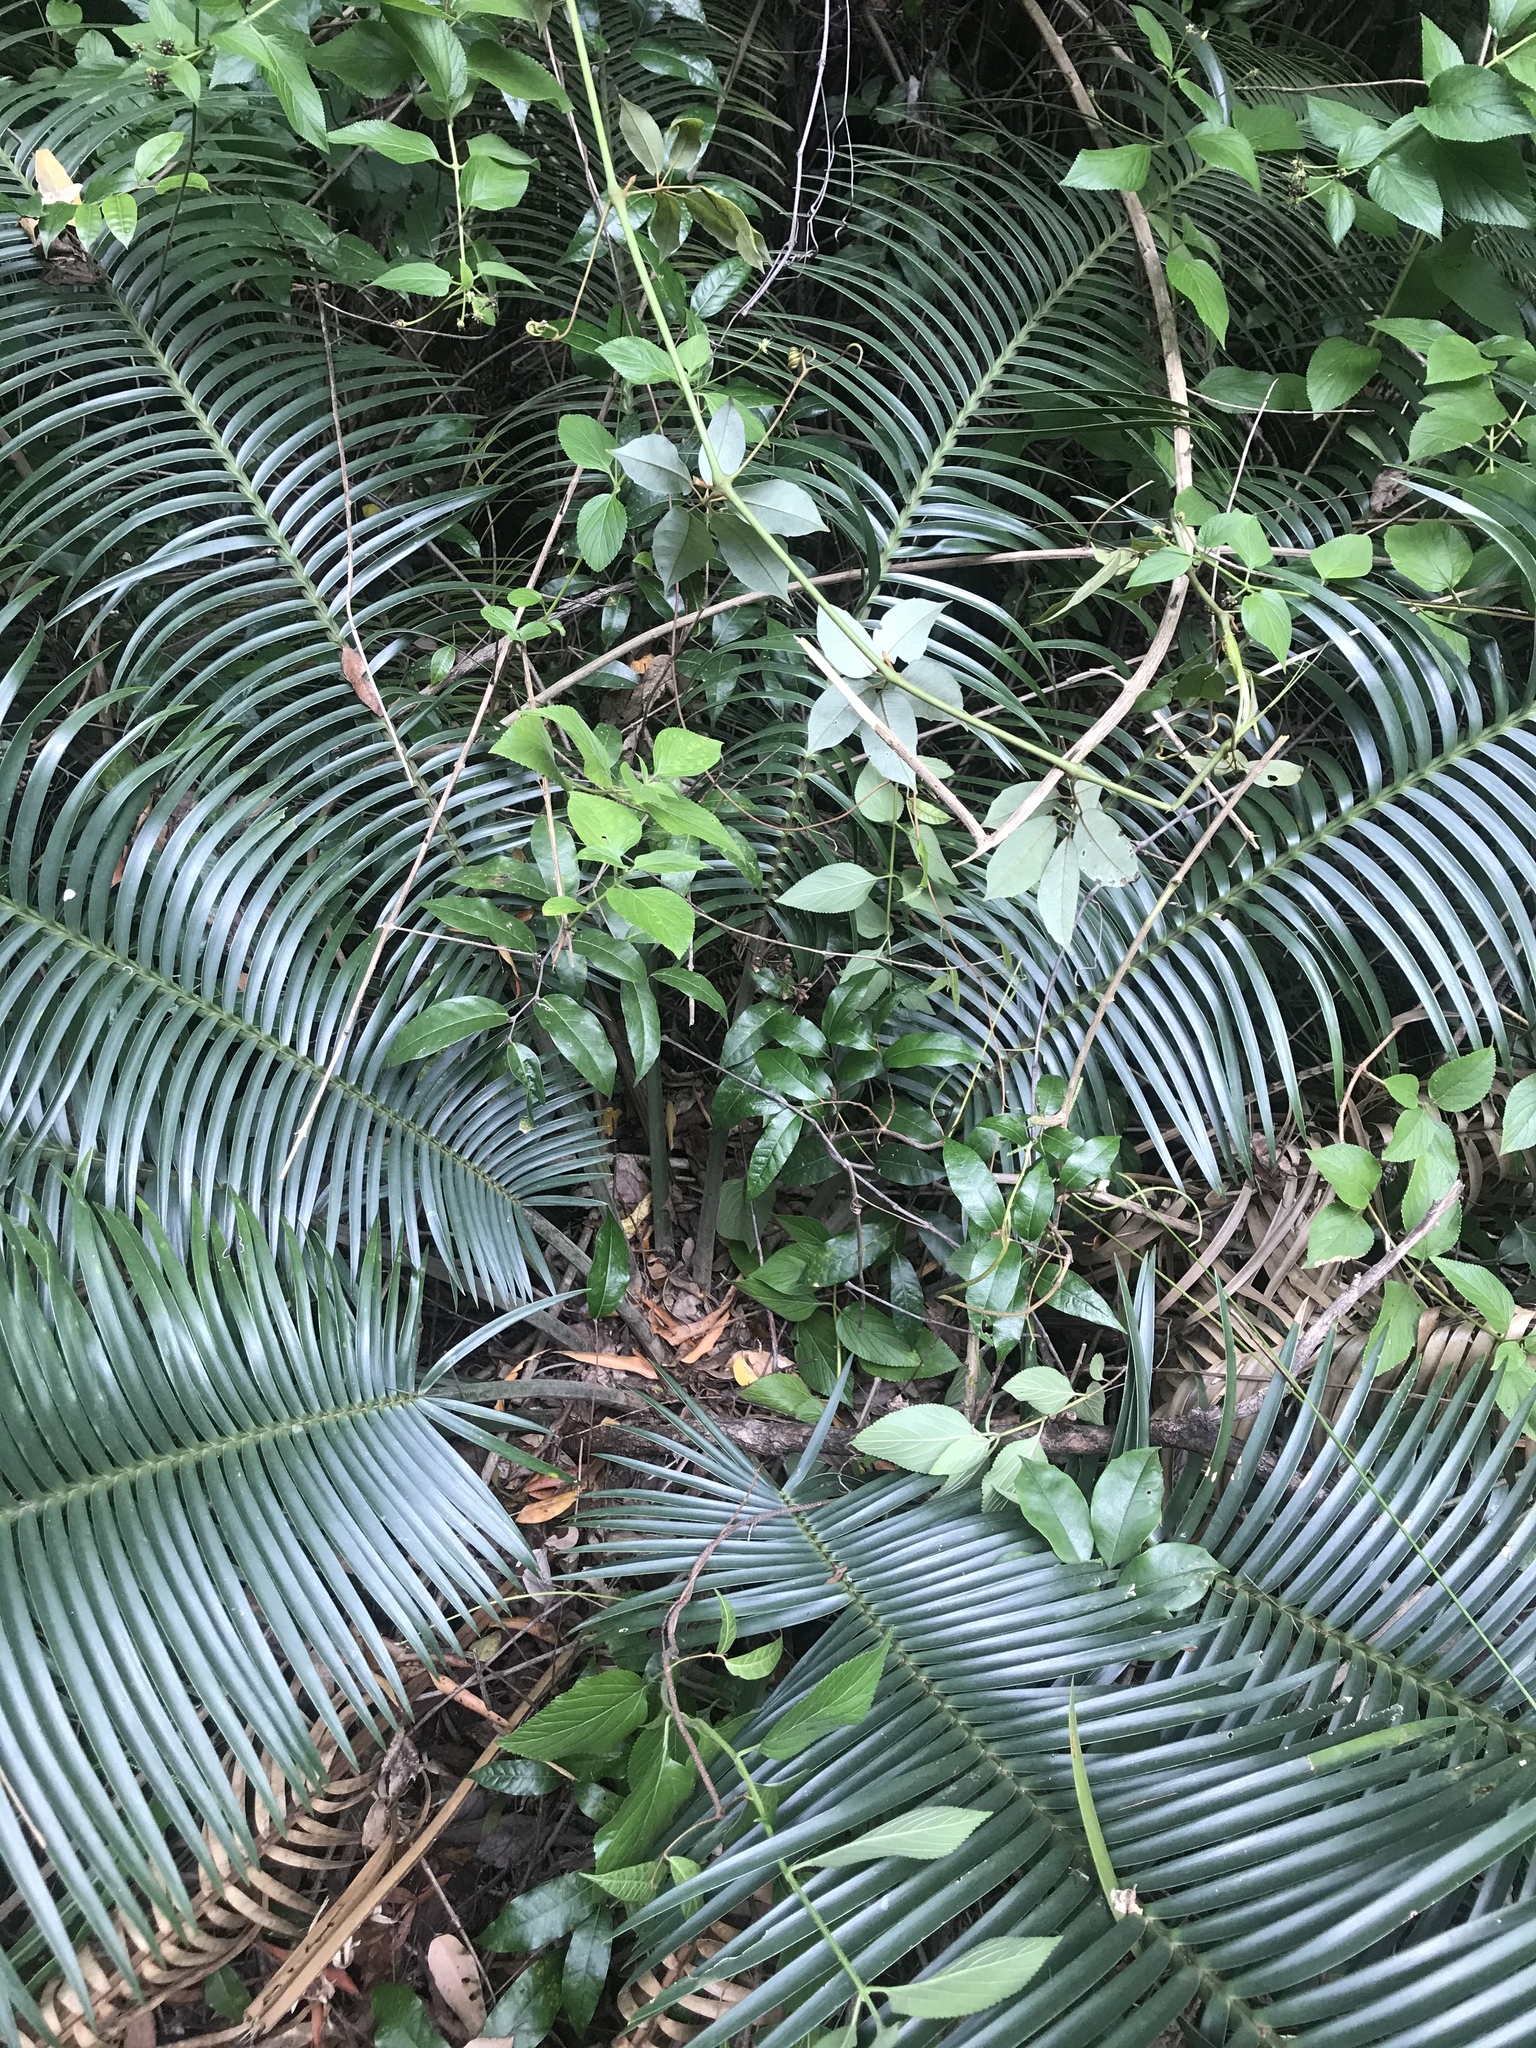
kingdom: Plantae
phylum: Tracheophyta
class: Cycadopsida
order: Cycadales
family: Zamiaceae
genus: Lepidozamia
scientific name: Lepidozamia peroffskyana
